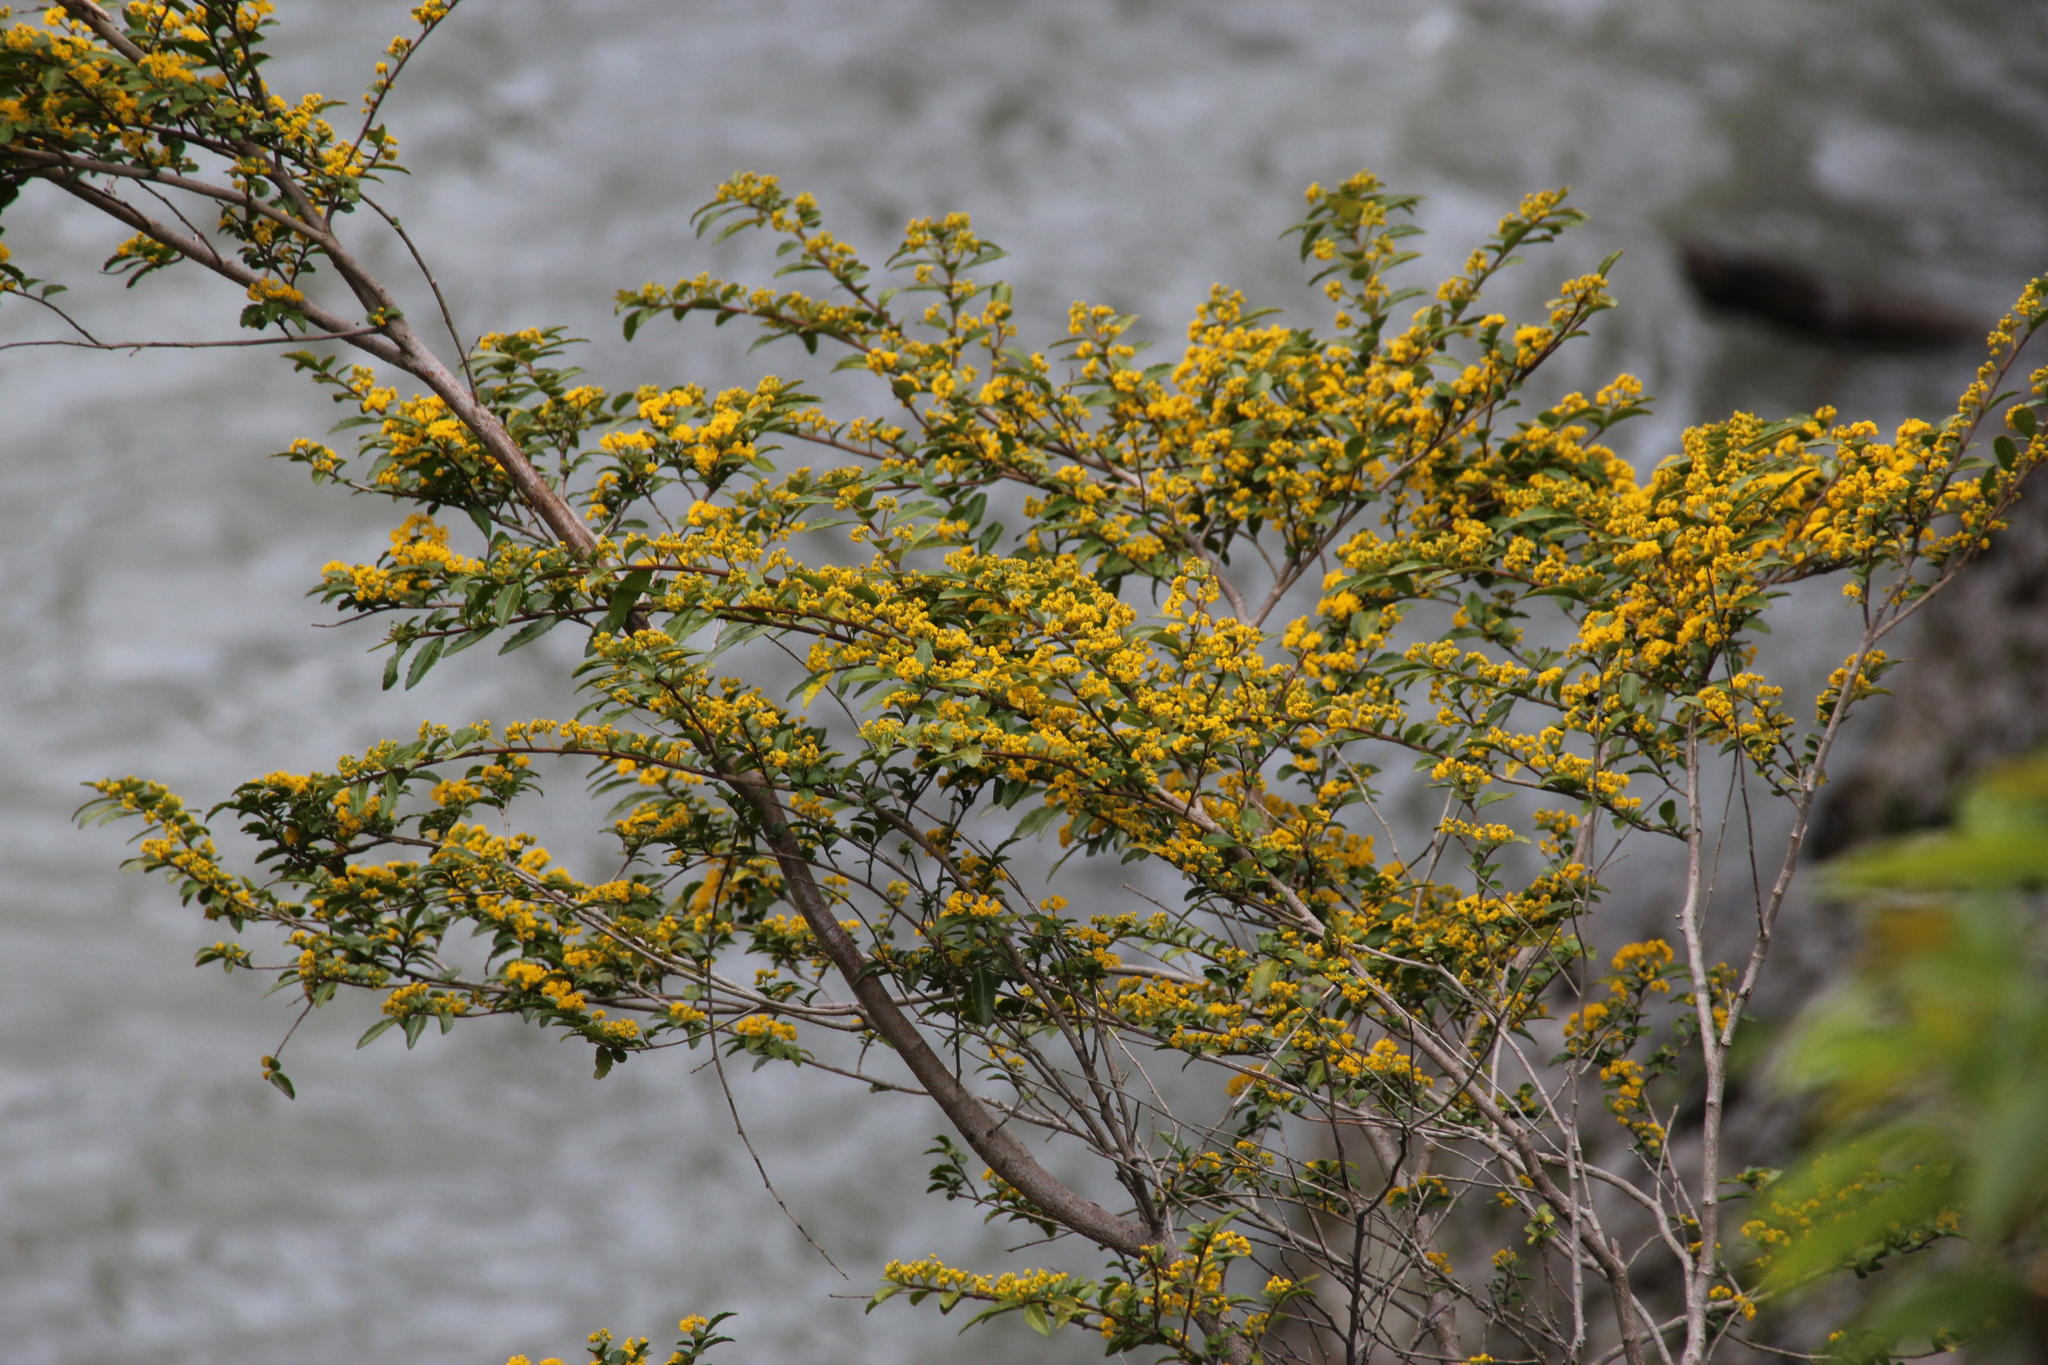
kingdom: Plantae
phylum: Tracheophyta
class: Magnoliopsida
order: Malpighiales
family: Salicaceae
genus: Azara
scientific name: Azara lanceolata
